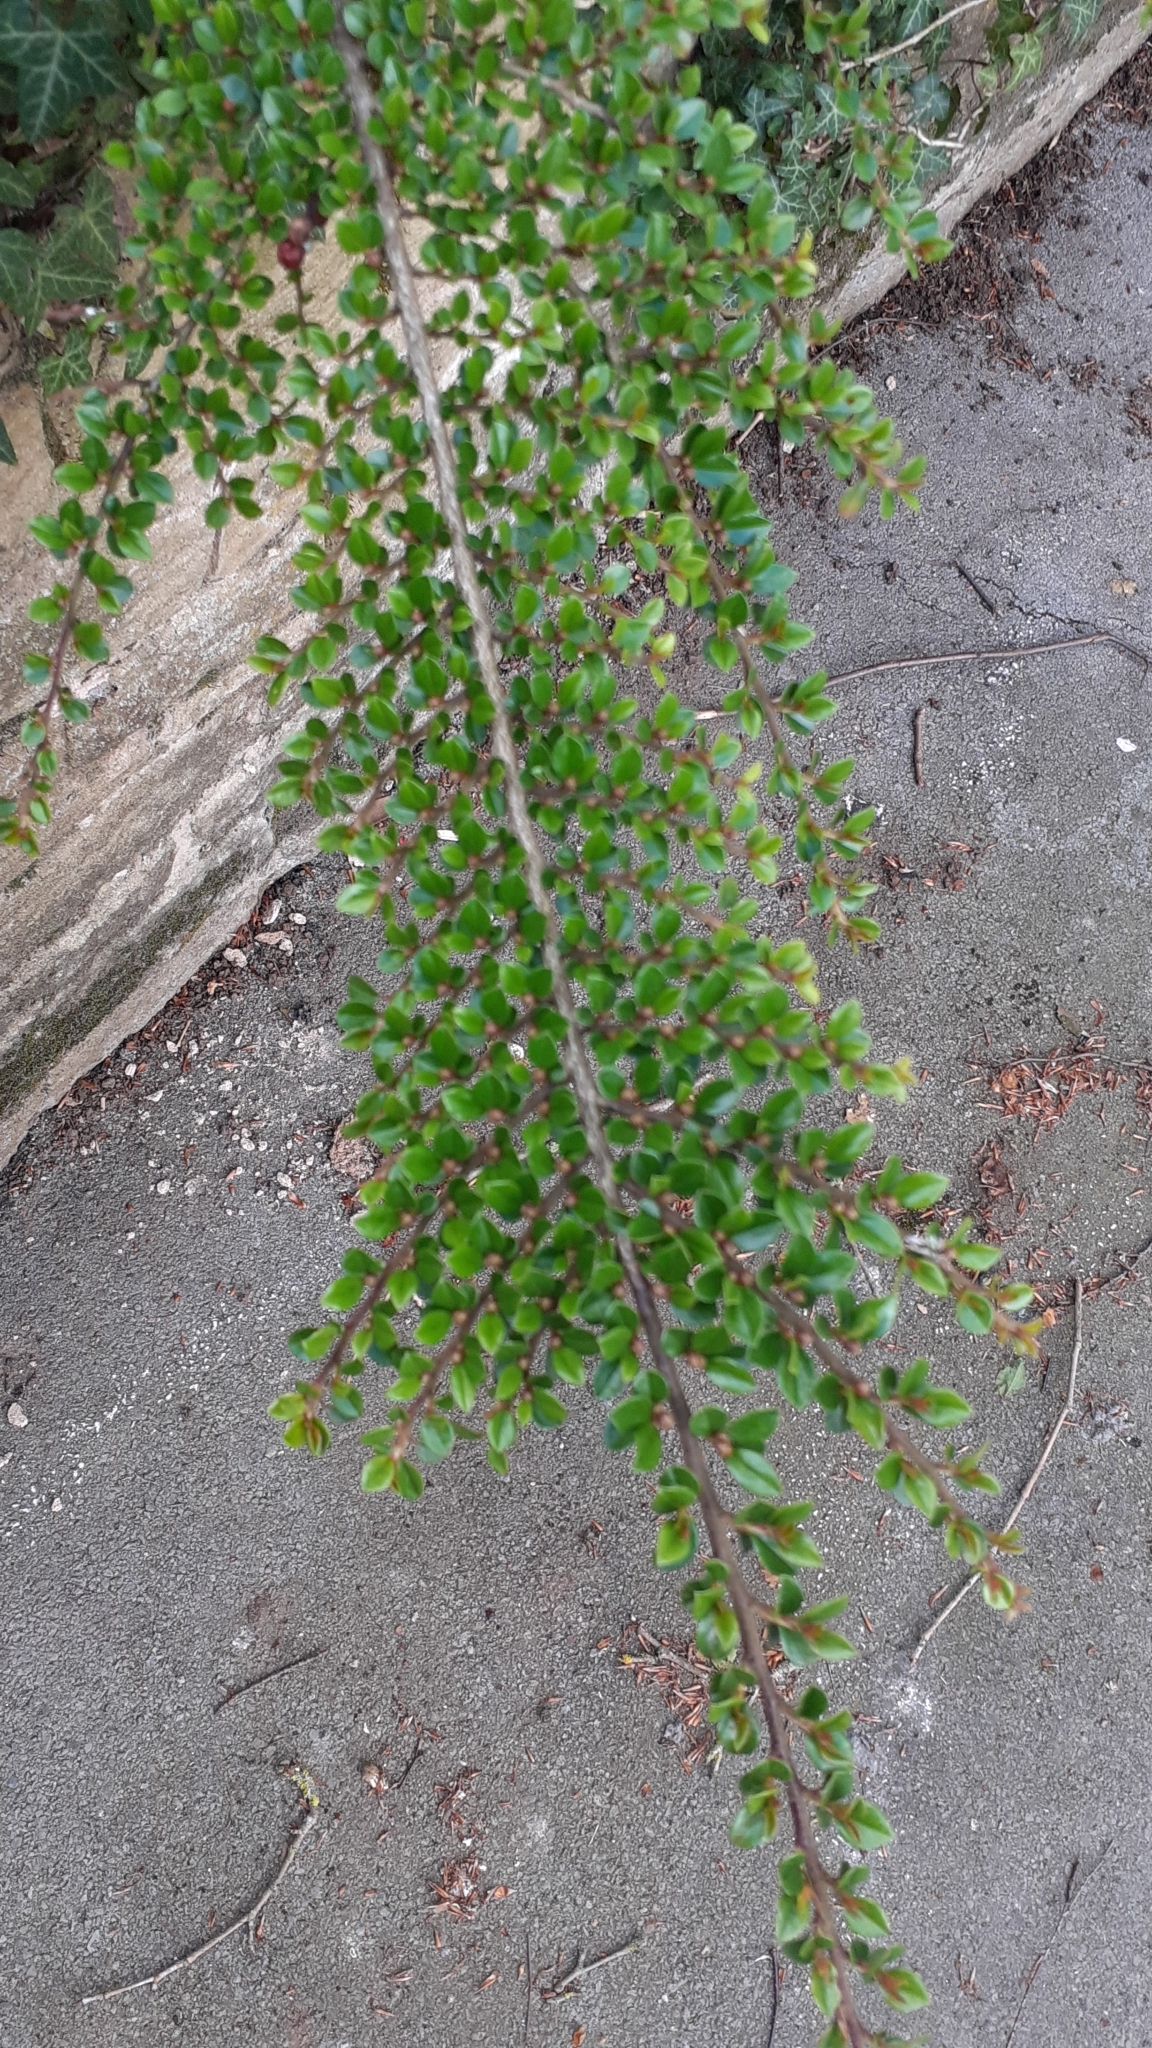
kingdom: Plantae
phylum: Tracheophyta
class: Magnoliopsida
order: Rosales
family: Rosaceae
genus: Cotoneaster
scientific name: Cotoneaster horizontalis
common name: Wall cotoneaster
